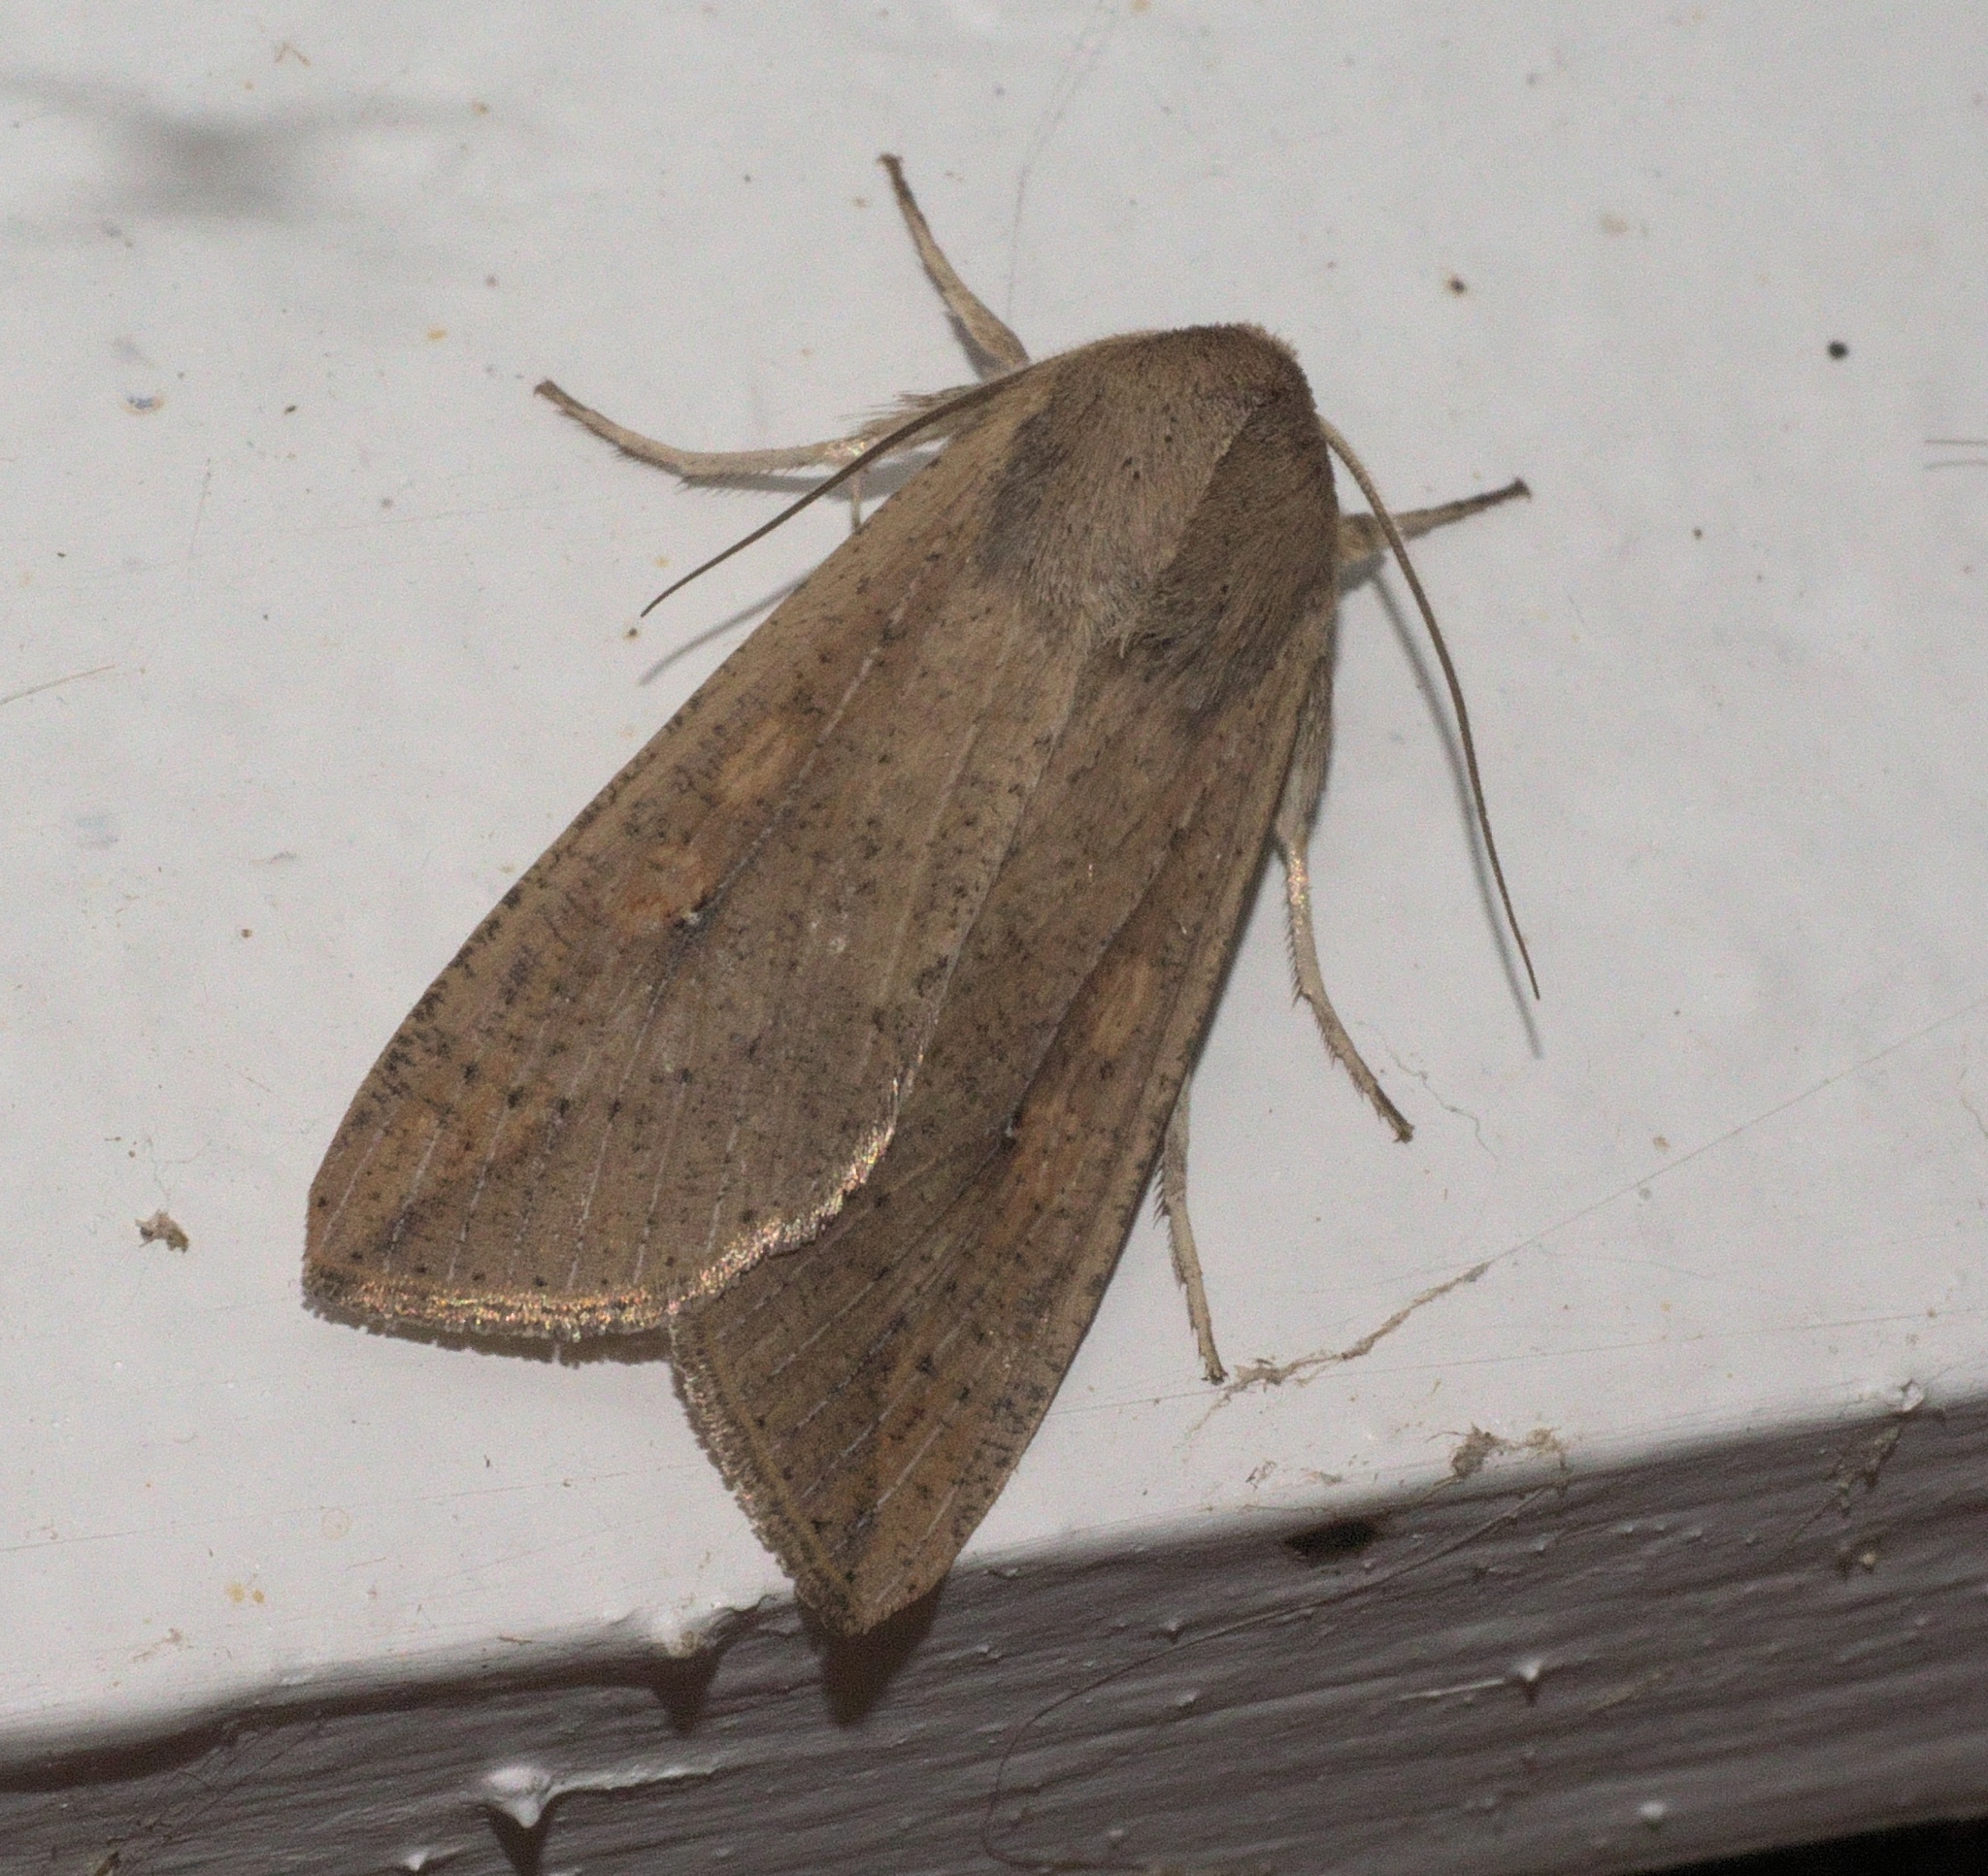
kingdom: Animalia
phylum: Arthropoda
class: Insecta
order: Lepidoptera
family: Noctuidae
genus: Mythimna
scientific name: Mythimna unipuncta
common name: White-speck
